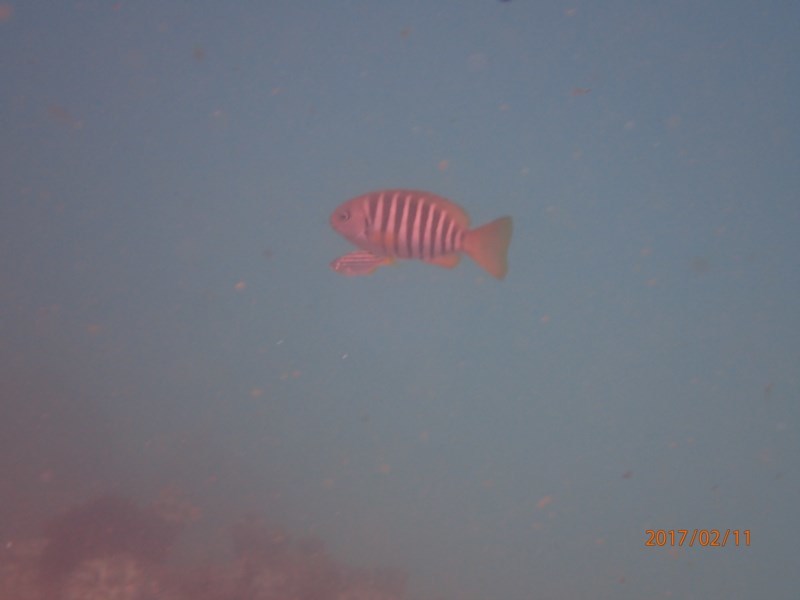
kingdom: Animalia
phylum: Chordata
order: Perciformes
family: Kyphosidae
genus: Girella
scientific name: Girella zebra
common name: Stripey bream
